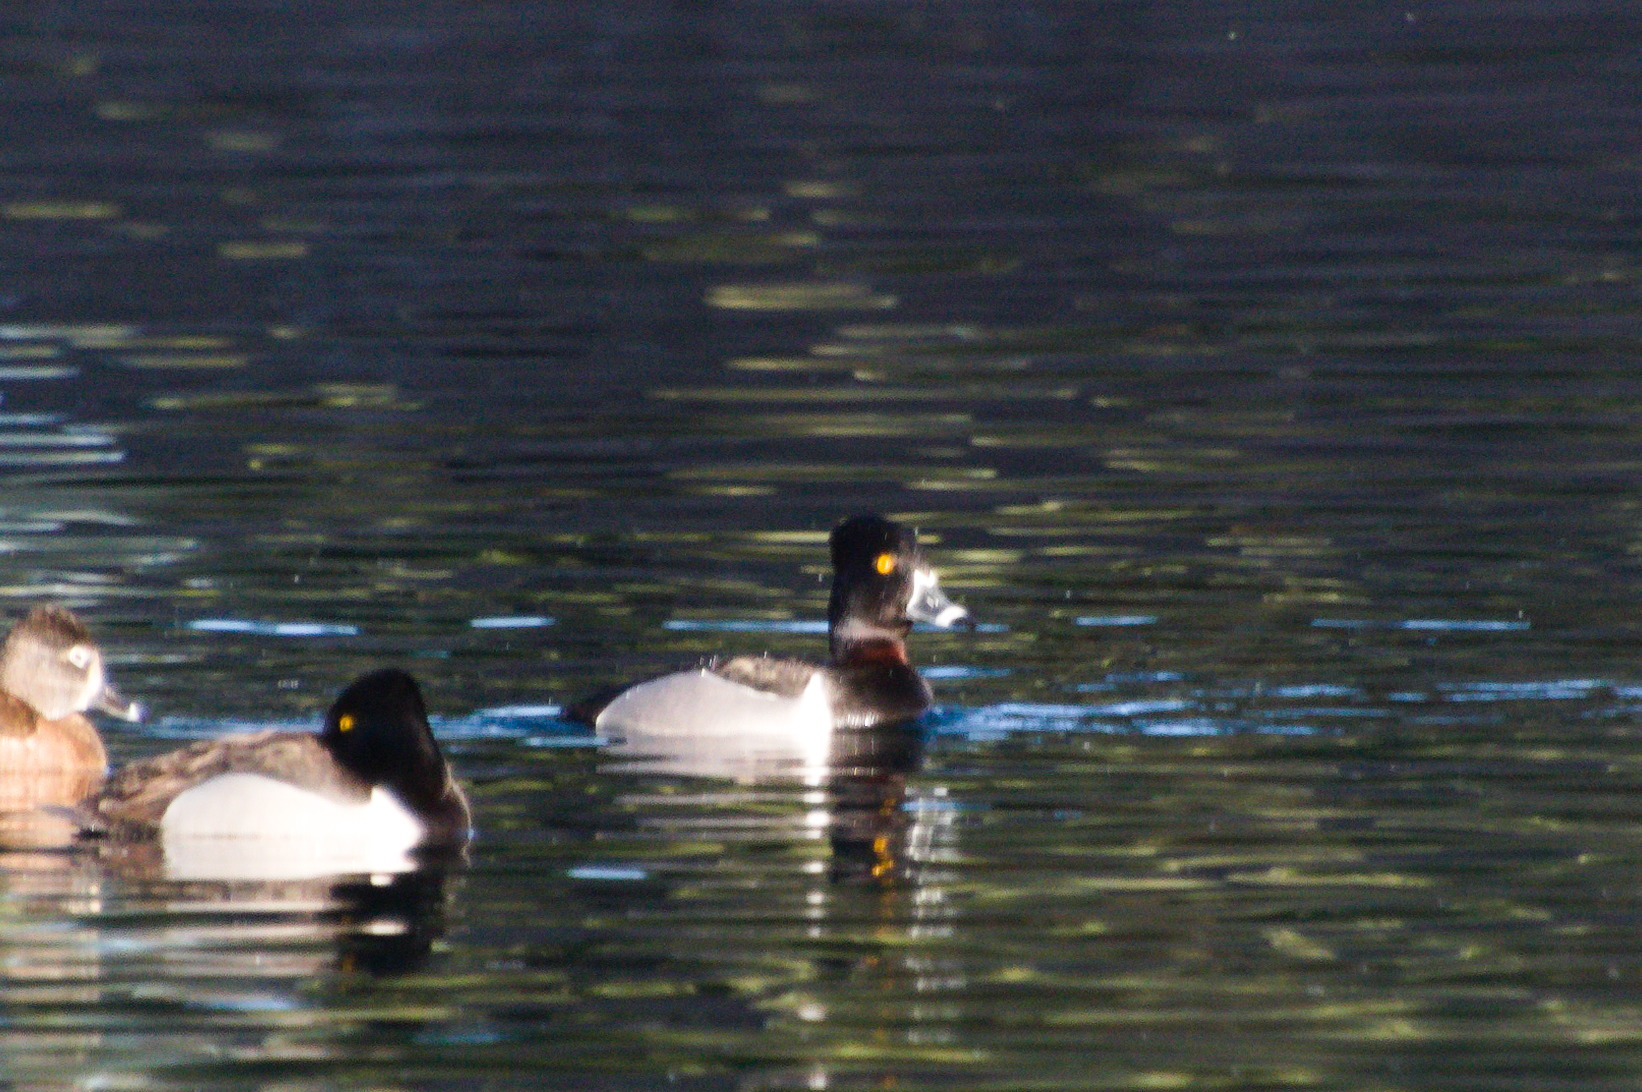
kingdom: Animalia
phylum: Chordata
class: Aves
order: Anseriformes
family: Anatidae
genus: Aythya
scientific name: Aythya collaris
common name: Ring-necked duck
